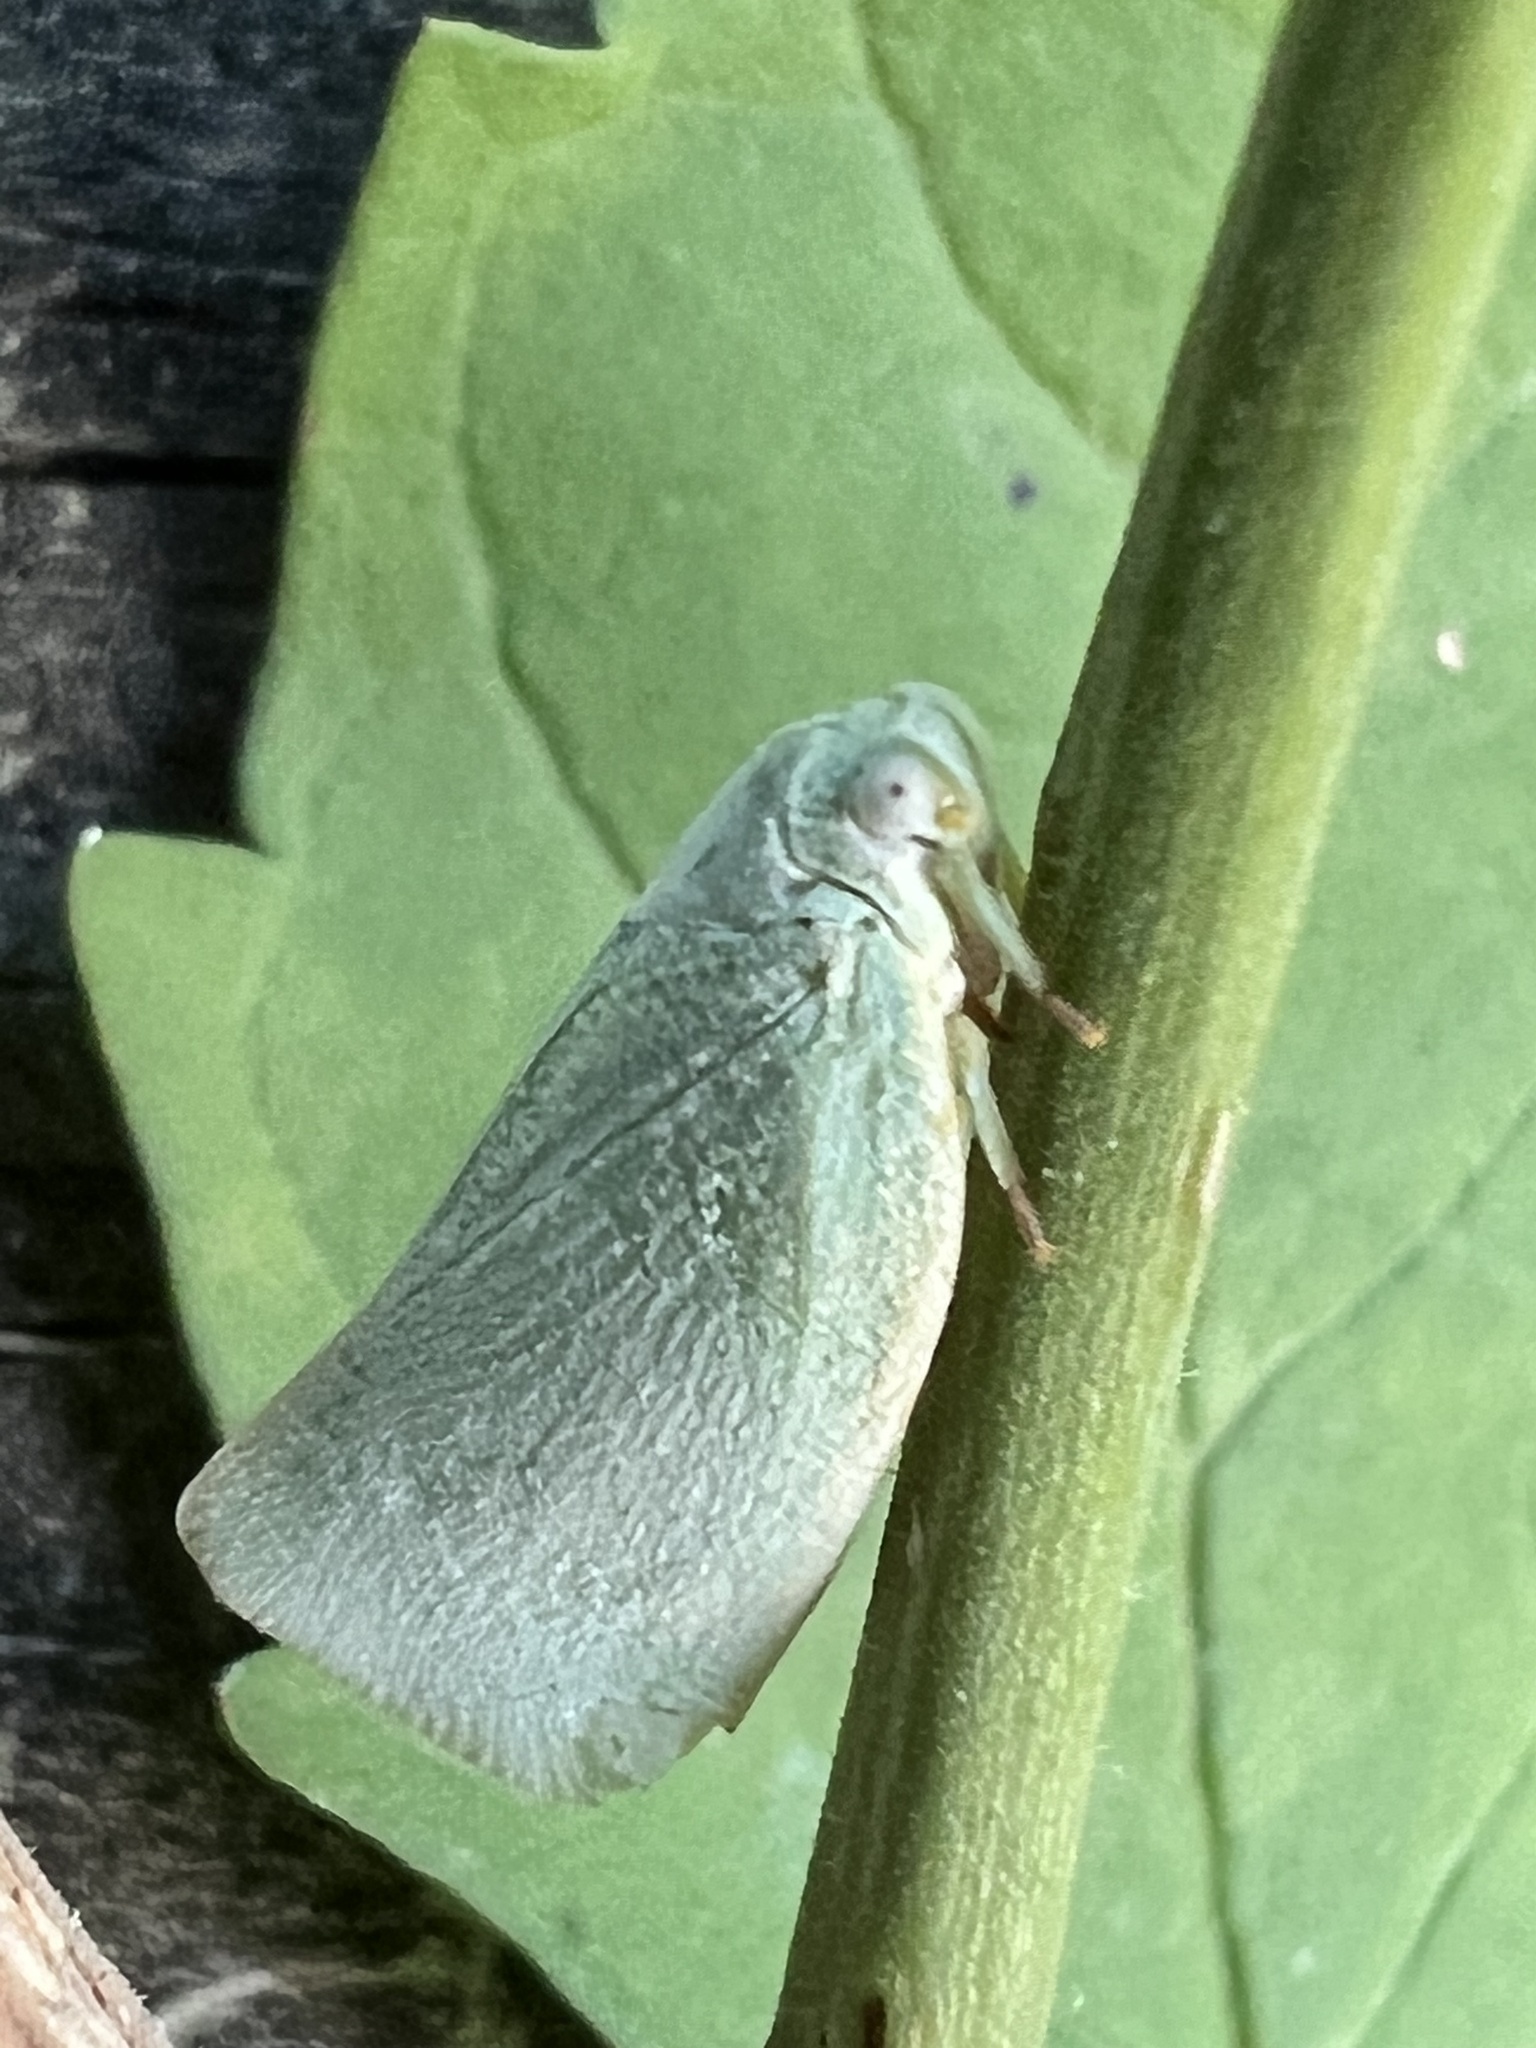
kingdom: Animalia
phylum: Arthropoda
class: Insecta
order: Hemiptera
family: Flatidae
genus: Flatormenis
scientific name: Flatormenis proxima
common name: Northern flatid planthopper
